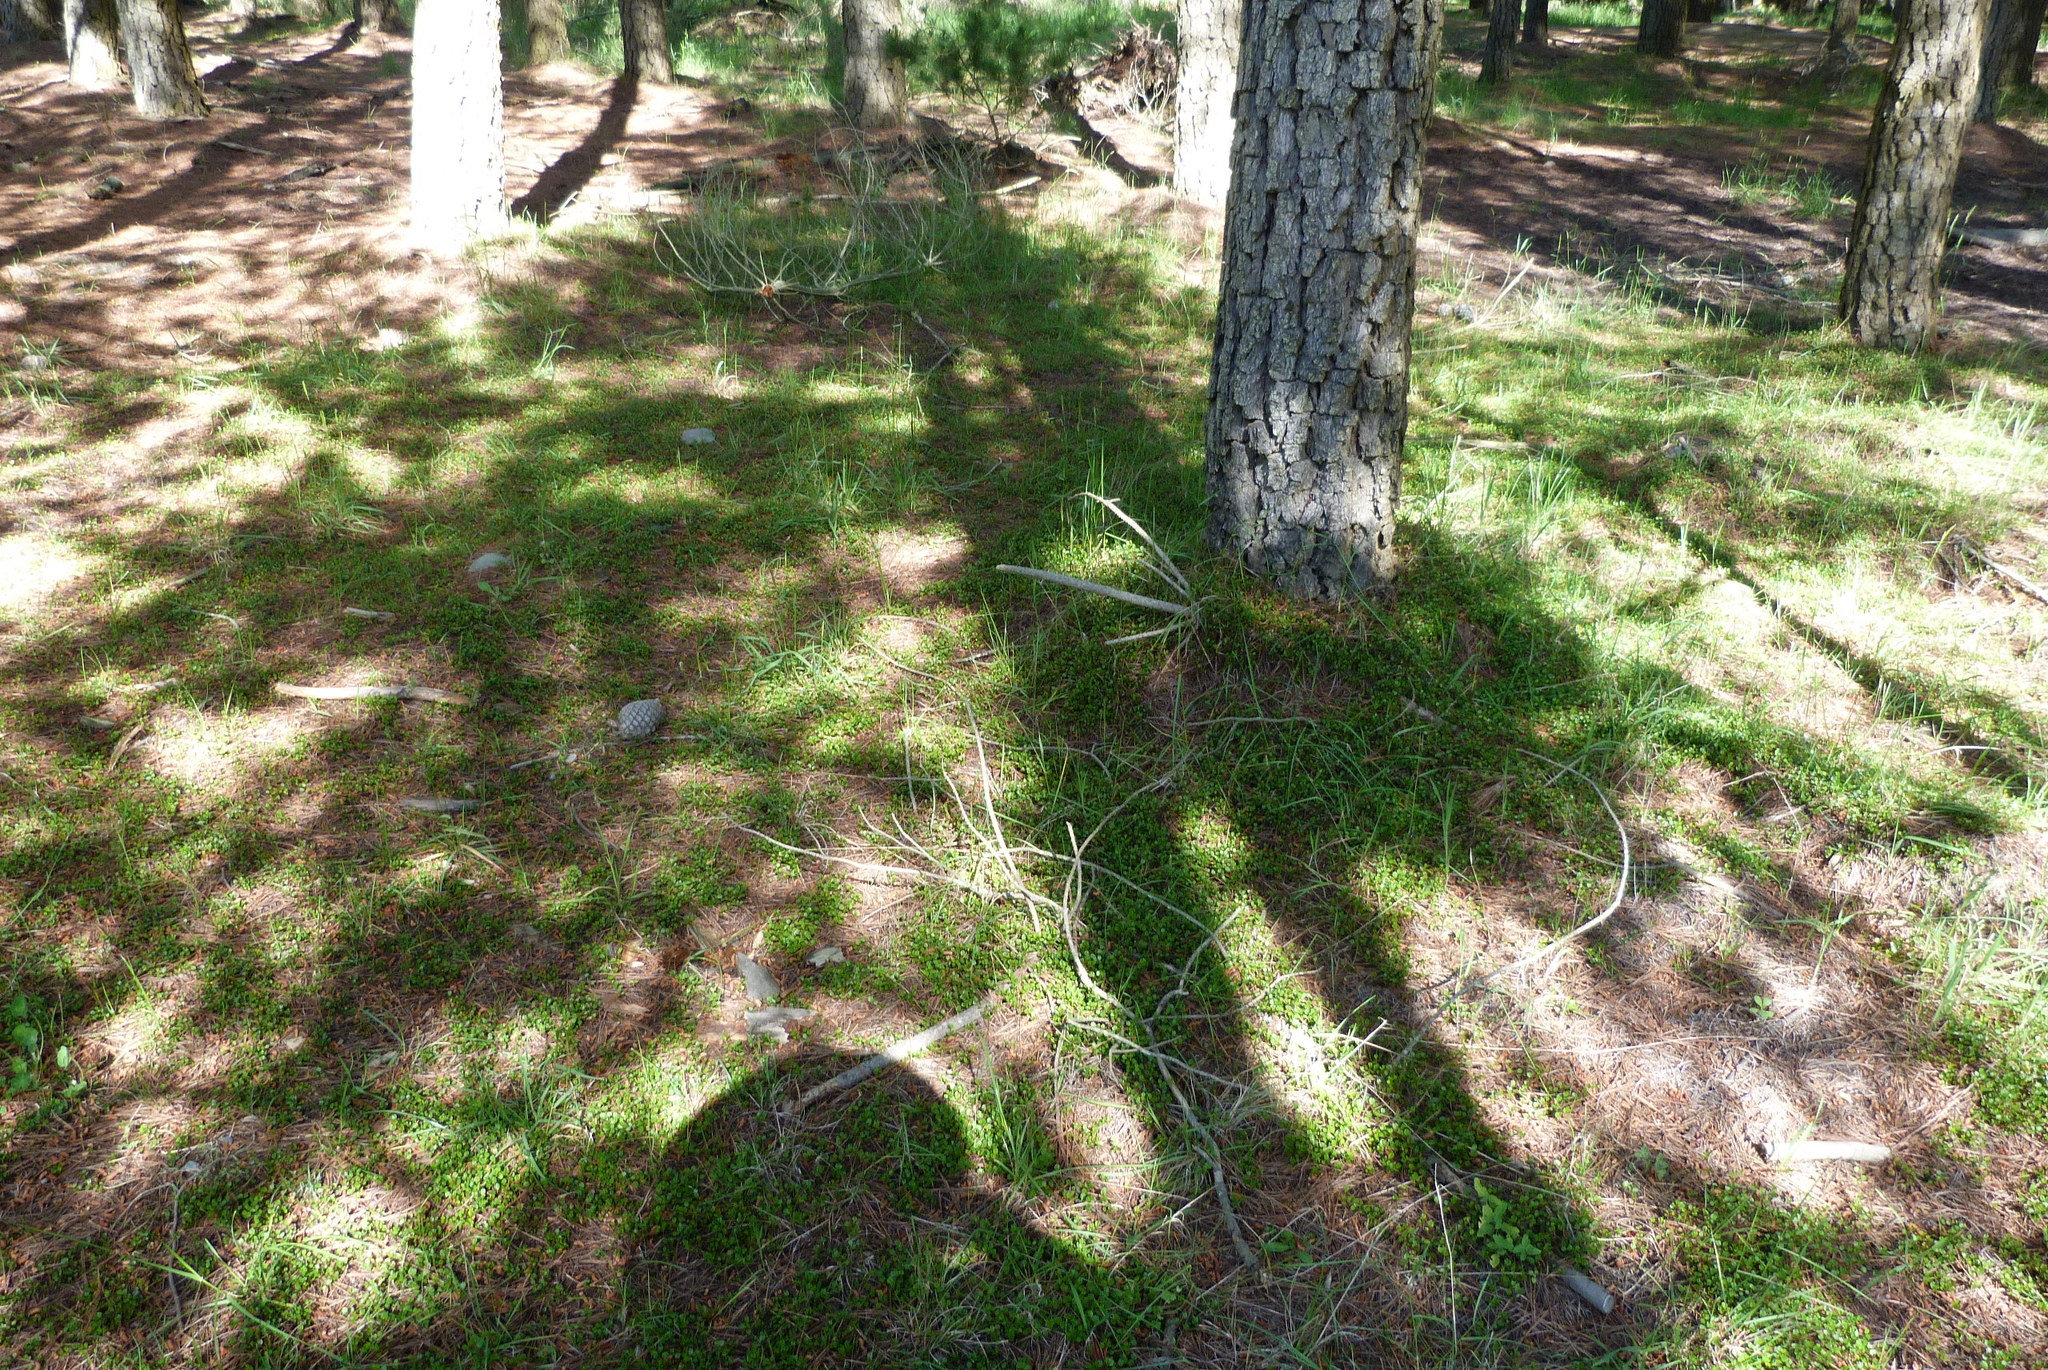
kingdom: Plantae
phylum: Tracheophyta
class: Magnoliopsida
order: Caryophyllales
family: Polygonaceae
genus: Muehlenbeckia
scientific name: Muehlenbeckia axillaris
